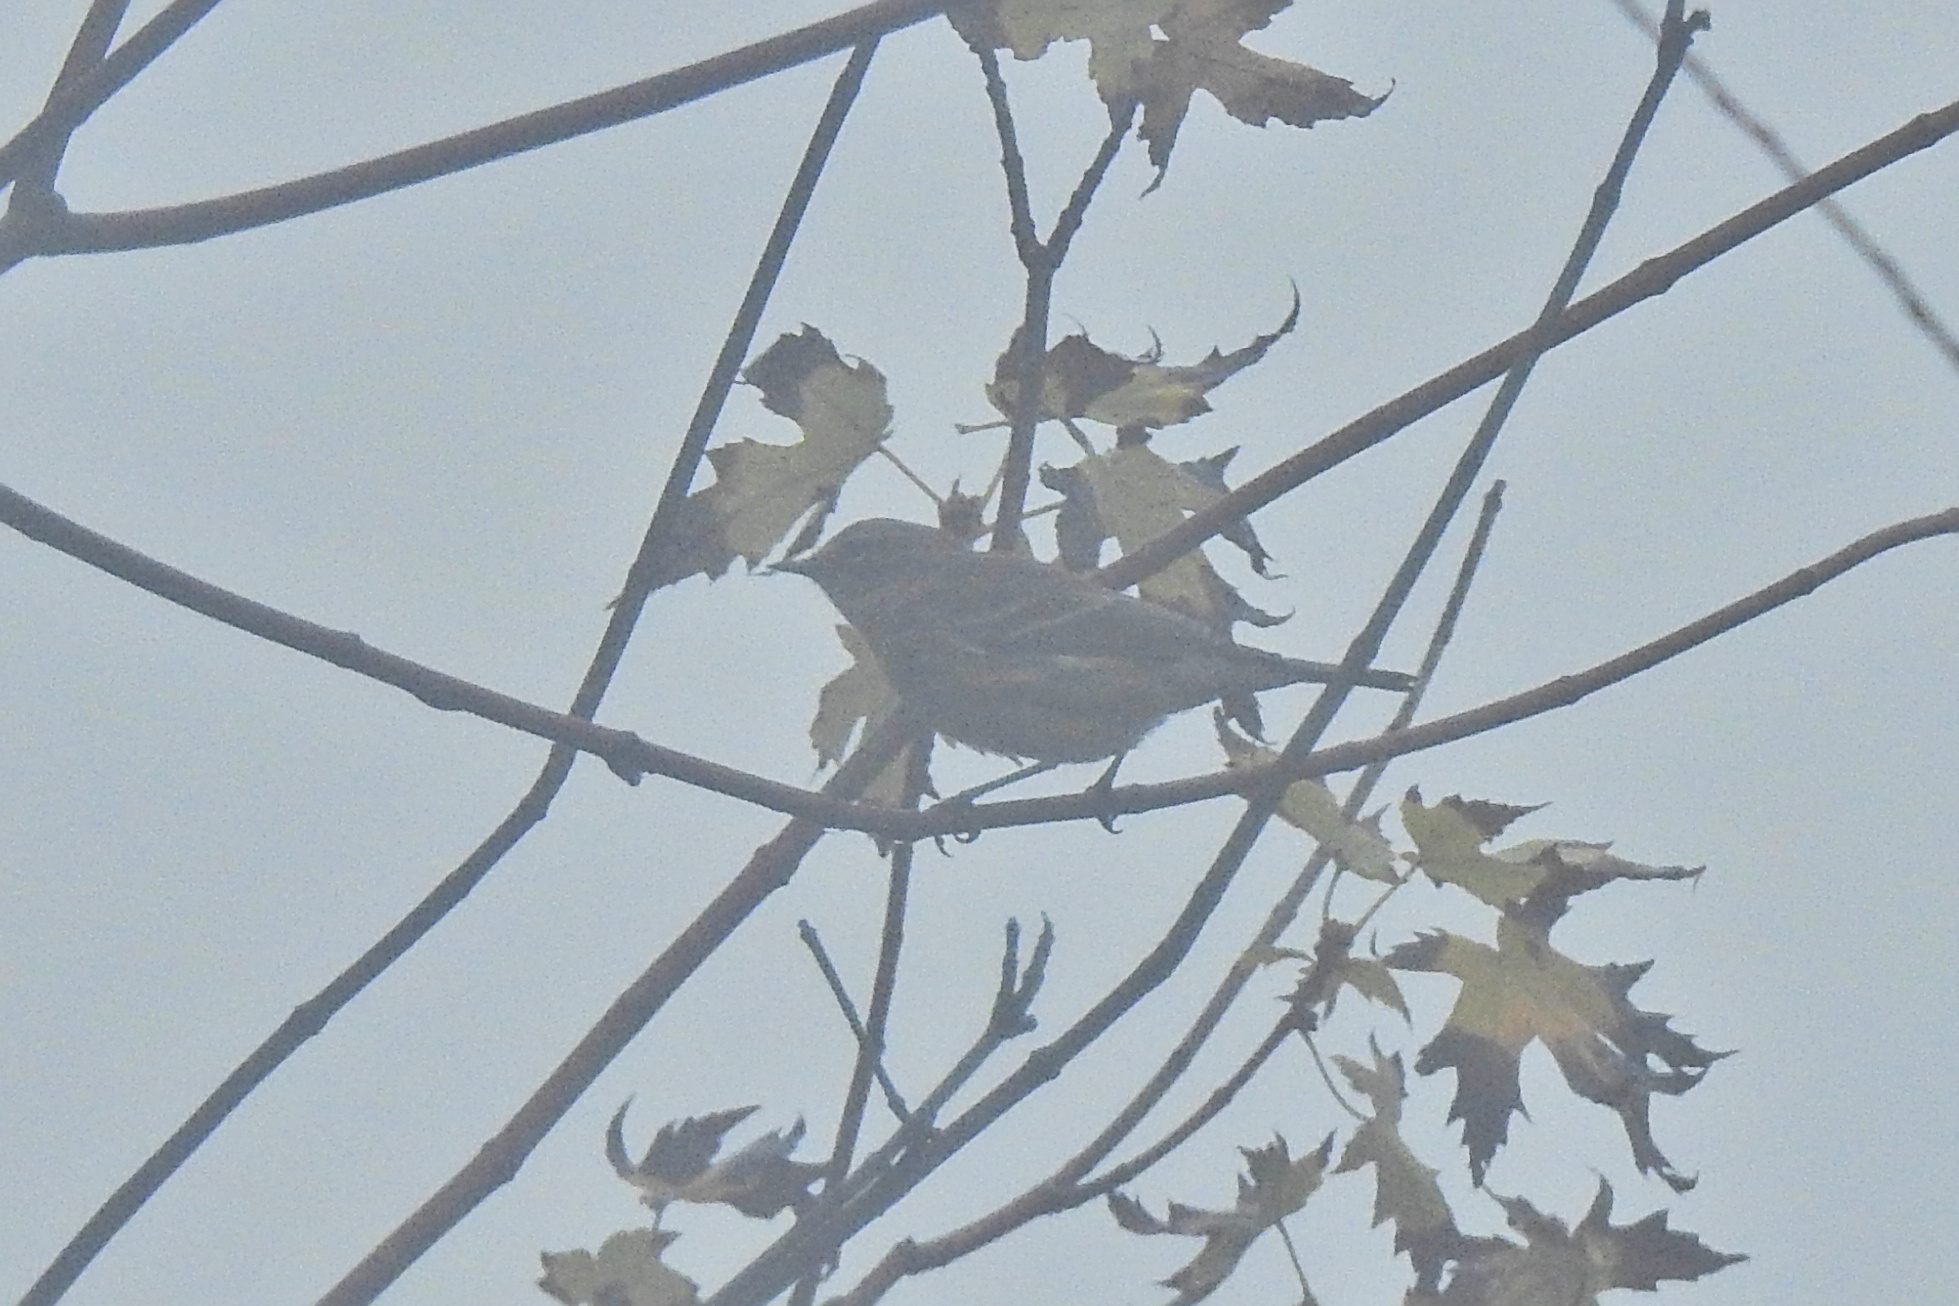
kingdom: Animalia
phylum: Chordata
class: Aves
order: Passeriformes
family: Parulidae
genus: Setophaga
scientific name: Setophaga coronata
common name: Myrtle warbler
